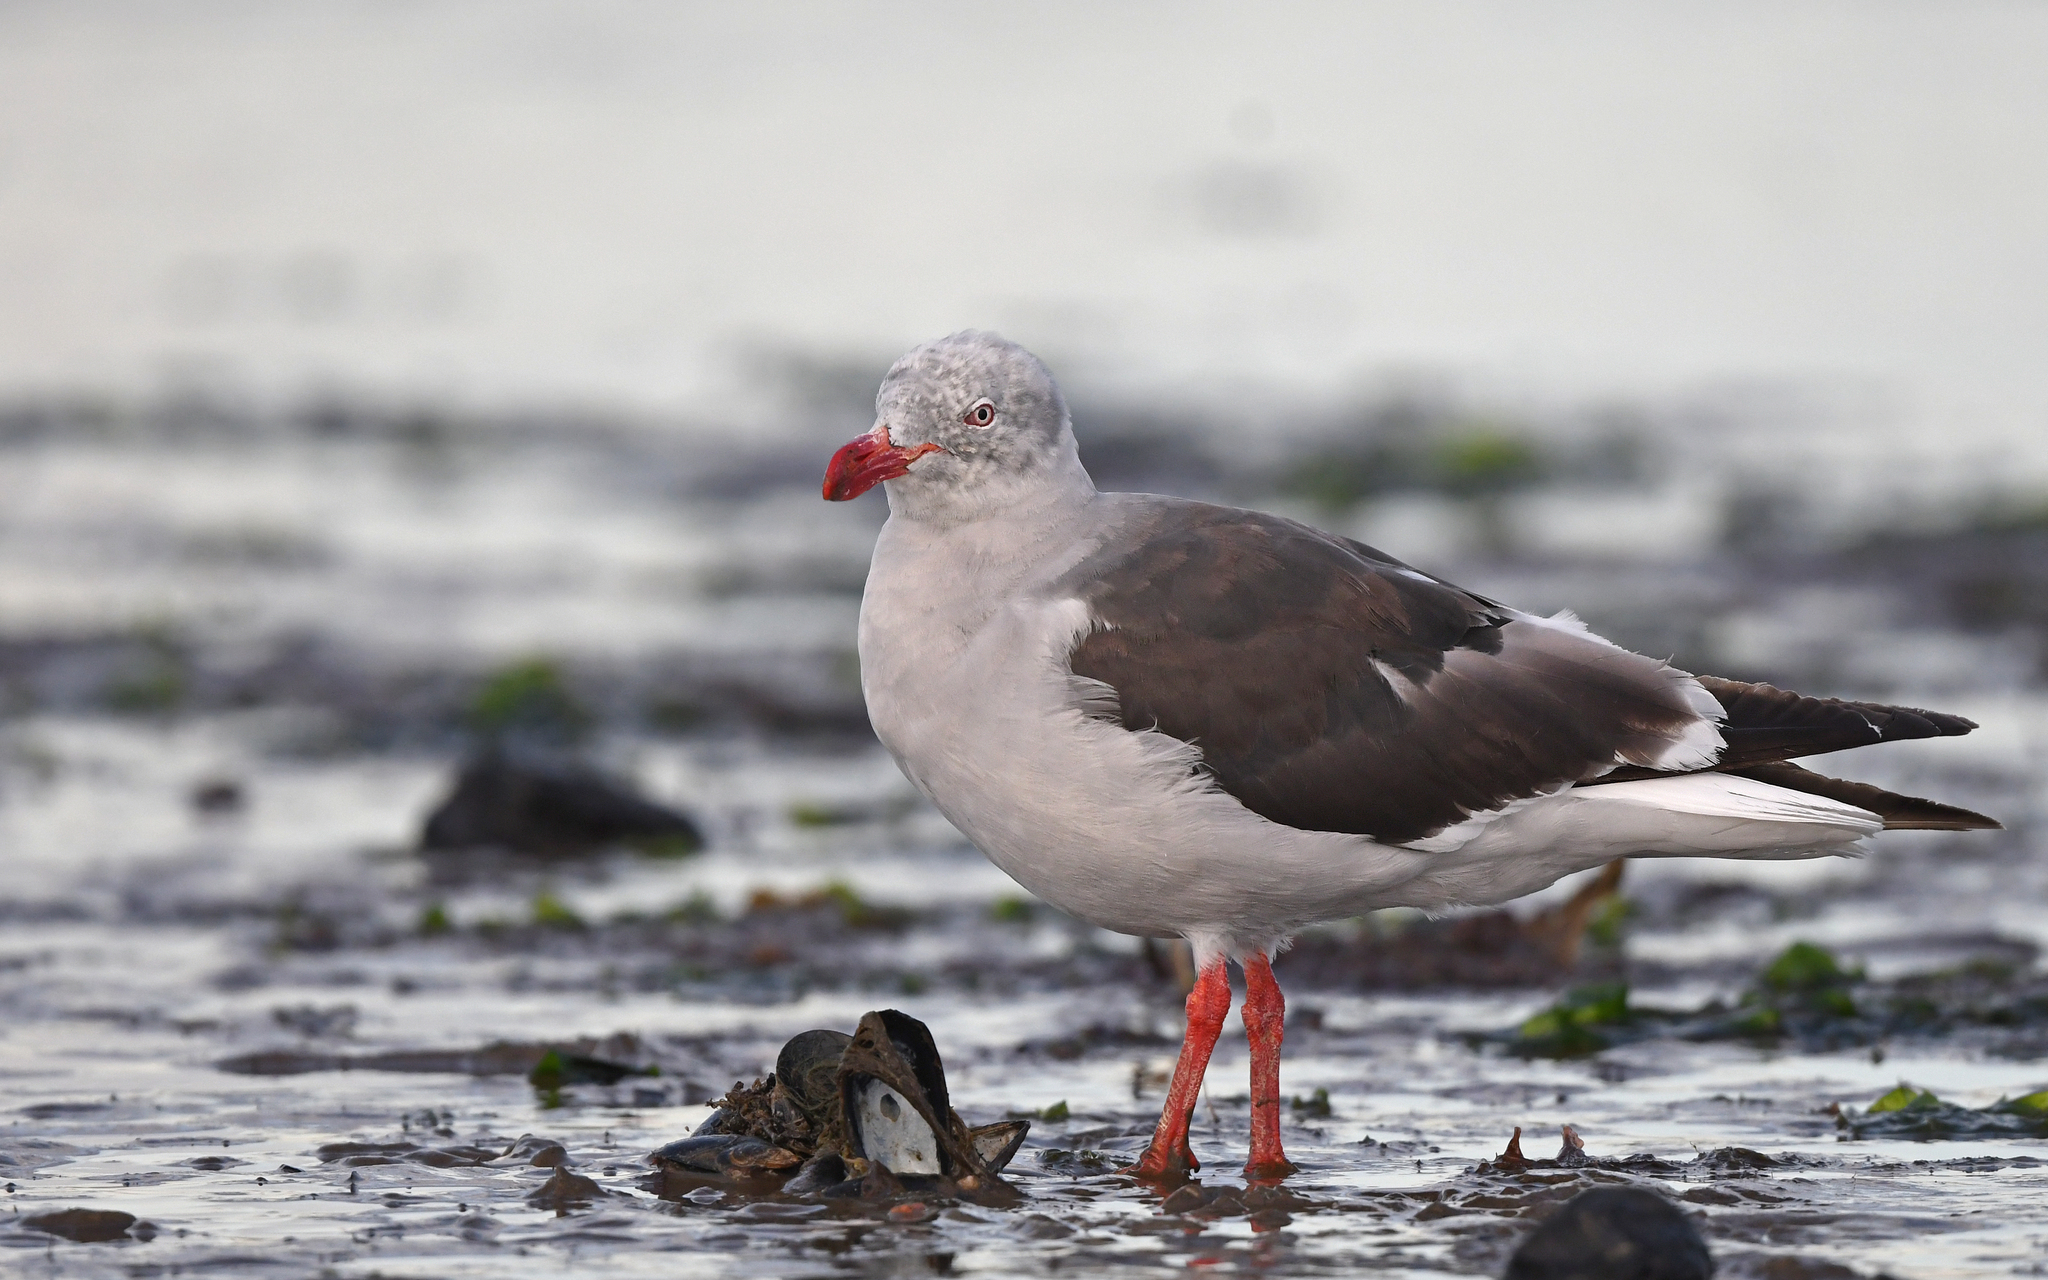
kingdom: Animalia
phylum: Chordata
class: Aves
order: Charadriiformes
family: Laridae
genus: Leucophaeus
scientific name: Leucophaeus scoresbii
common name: Dolphin gull
